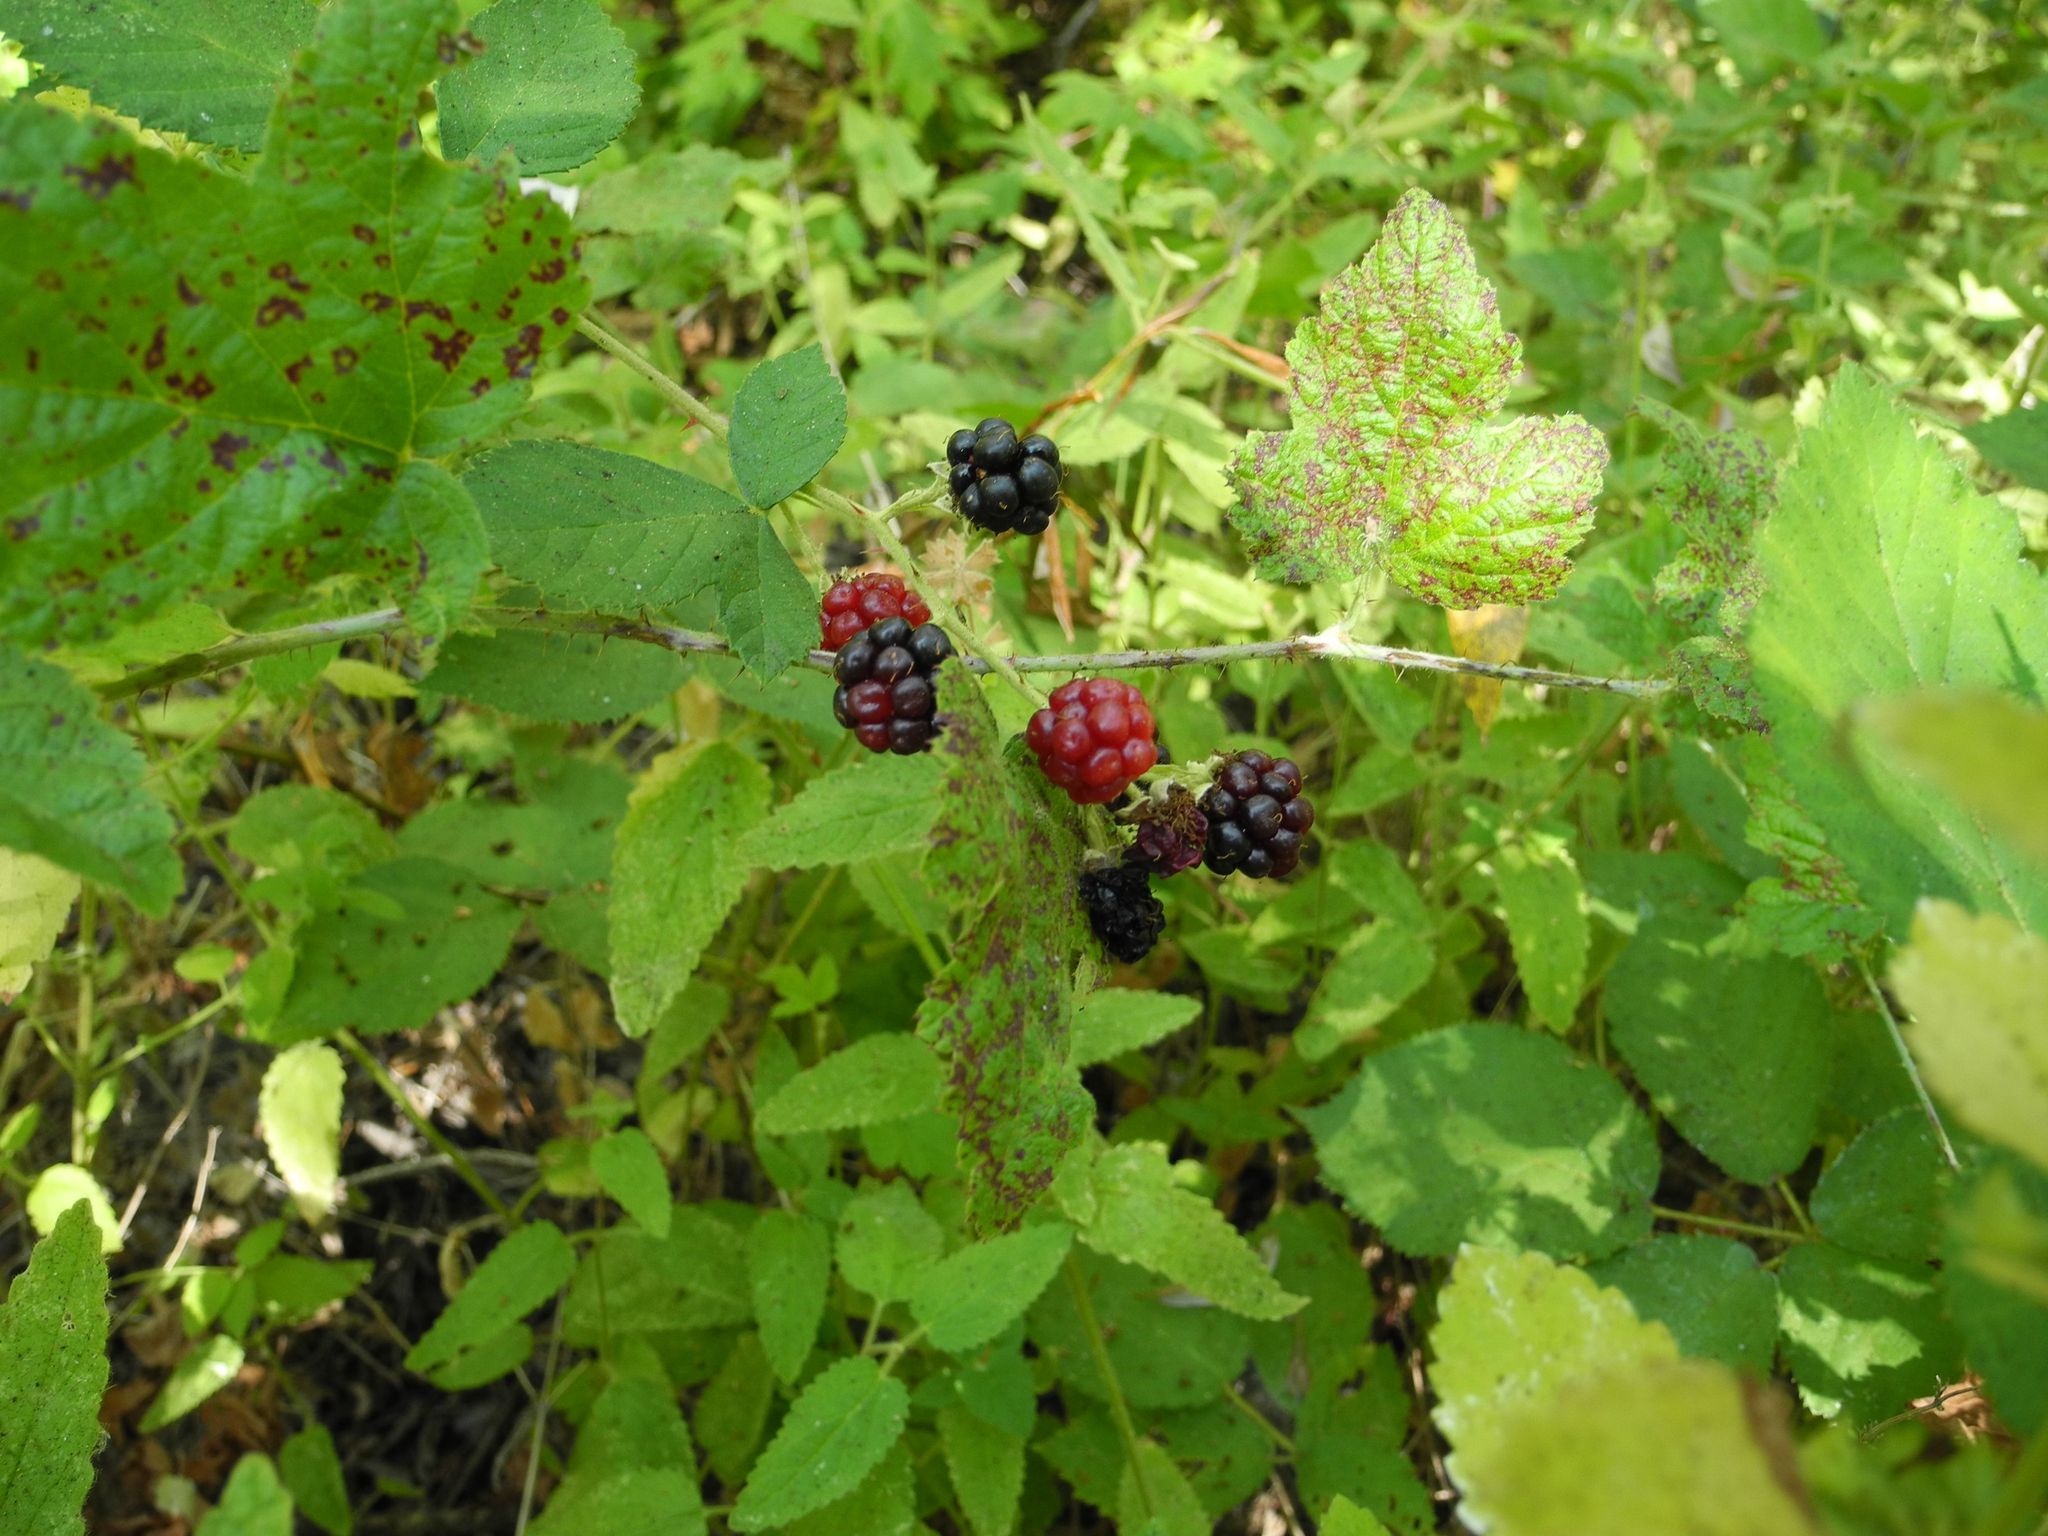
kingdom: Plantae
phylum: Tracheophyta
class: Magnoliopsida
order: Rosales
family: Rosaceae
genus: Rubus
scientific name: Rubus ursinus
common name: Pacific blackberry
